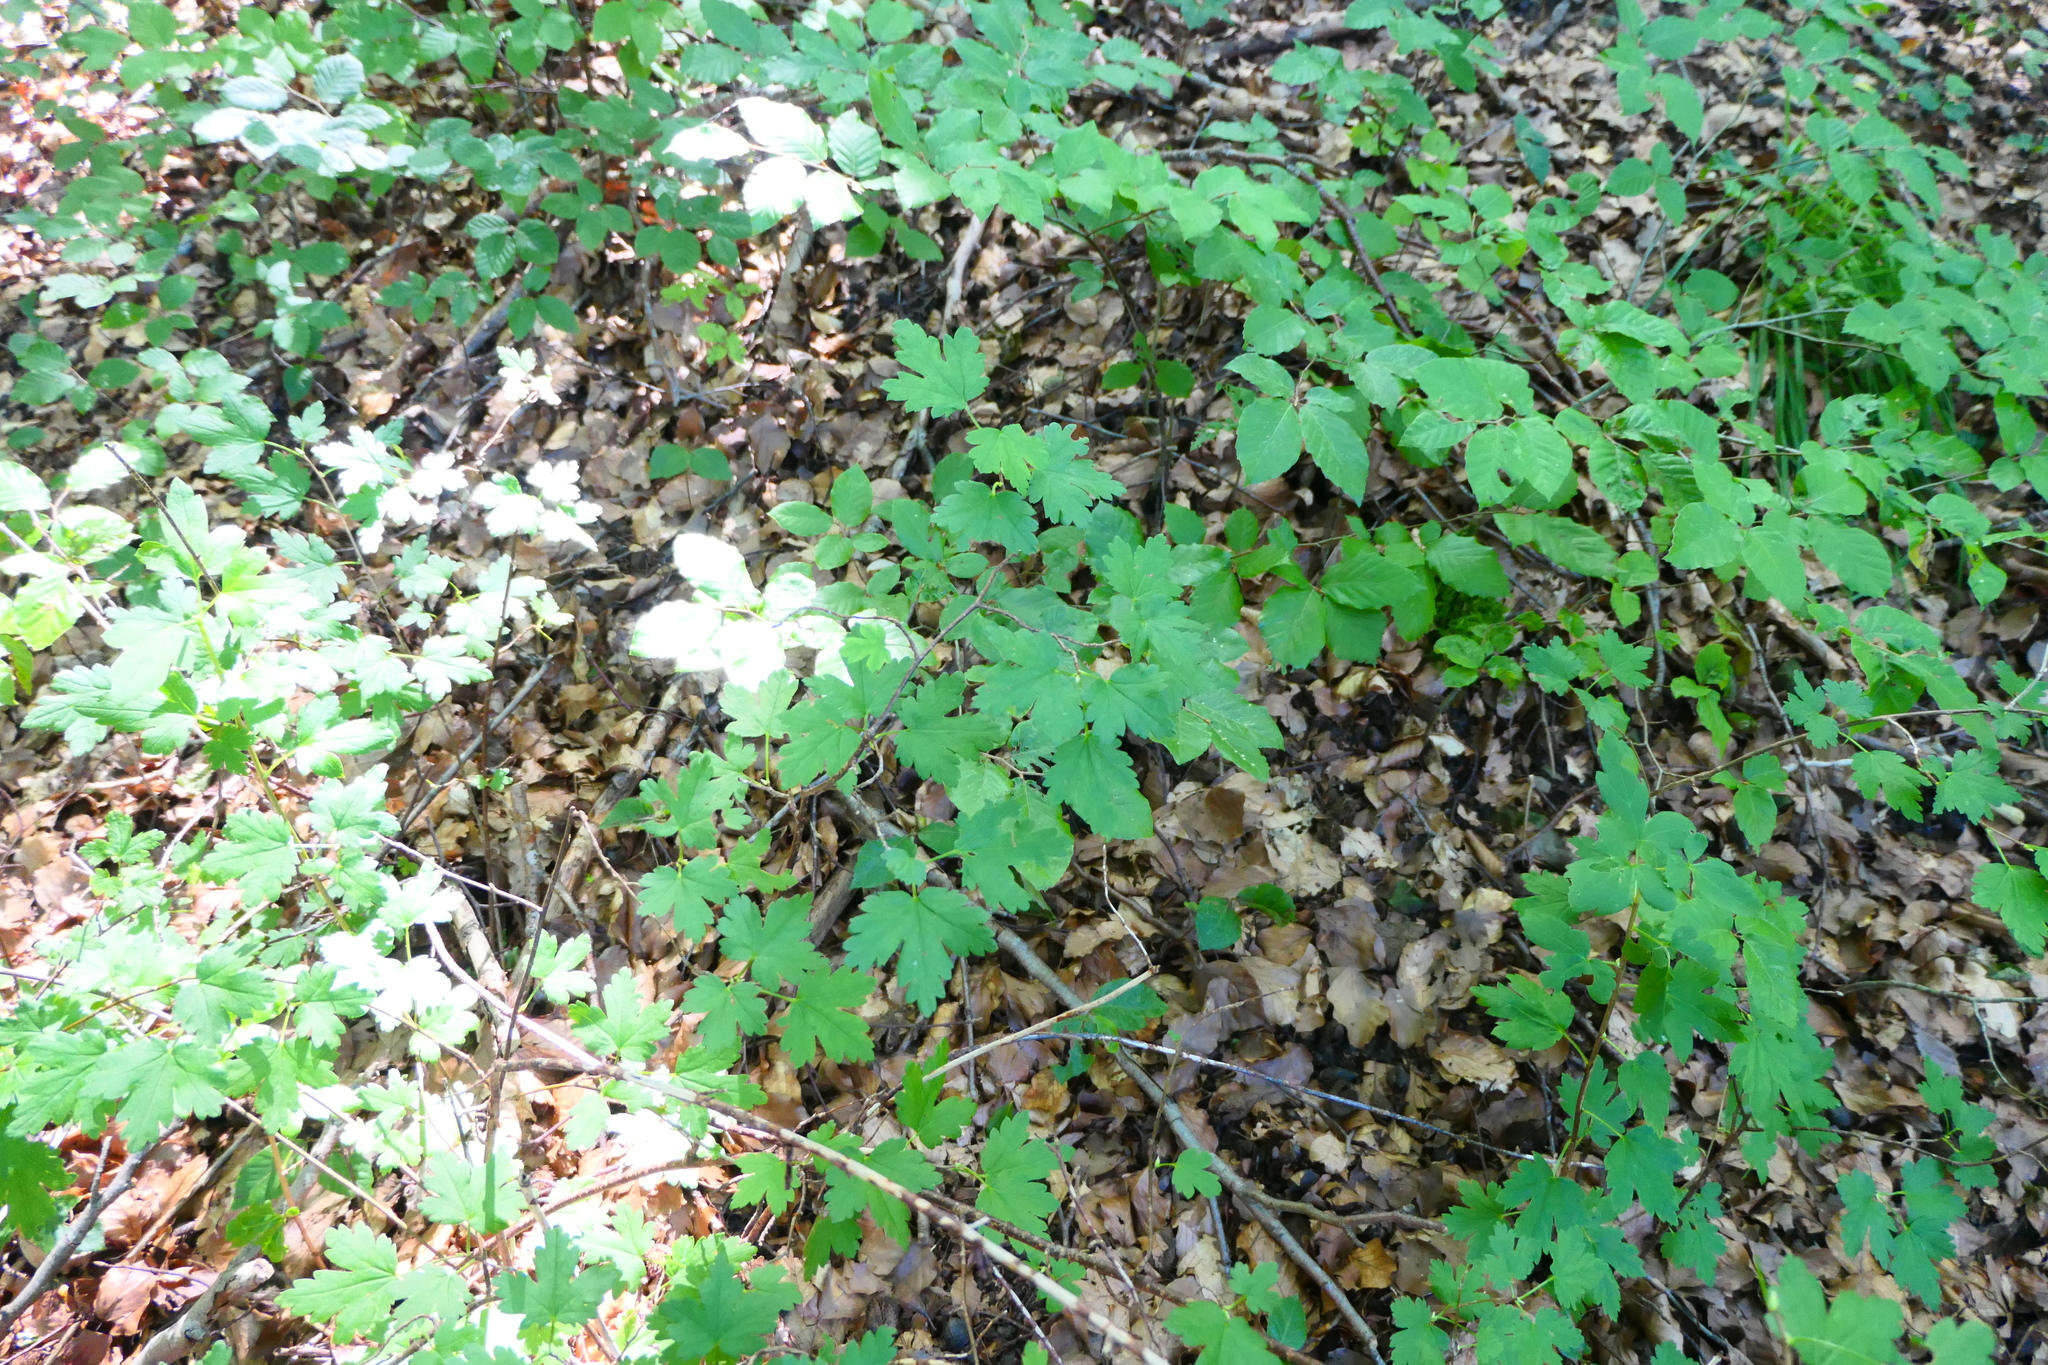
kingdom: Plantae
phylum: Tracheophyta
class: Magnoliopsida
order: Saxifragales
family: Grossulariaceae
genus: Ribes
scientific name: Ribes rubrum
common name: Red currant
